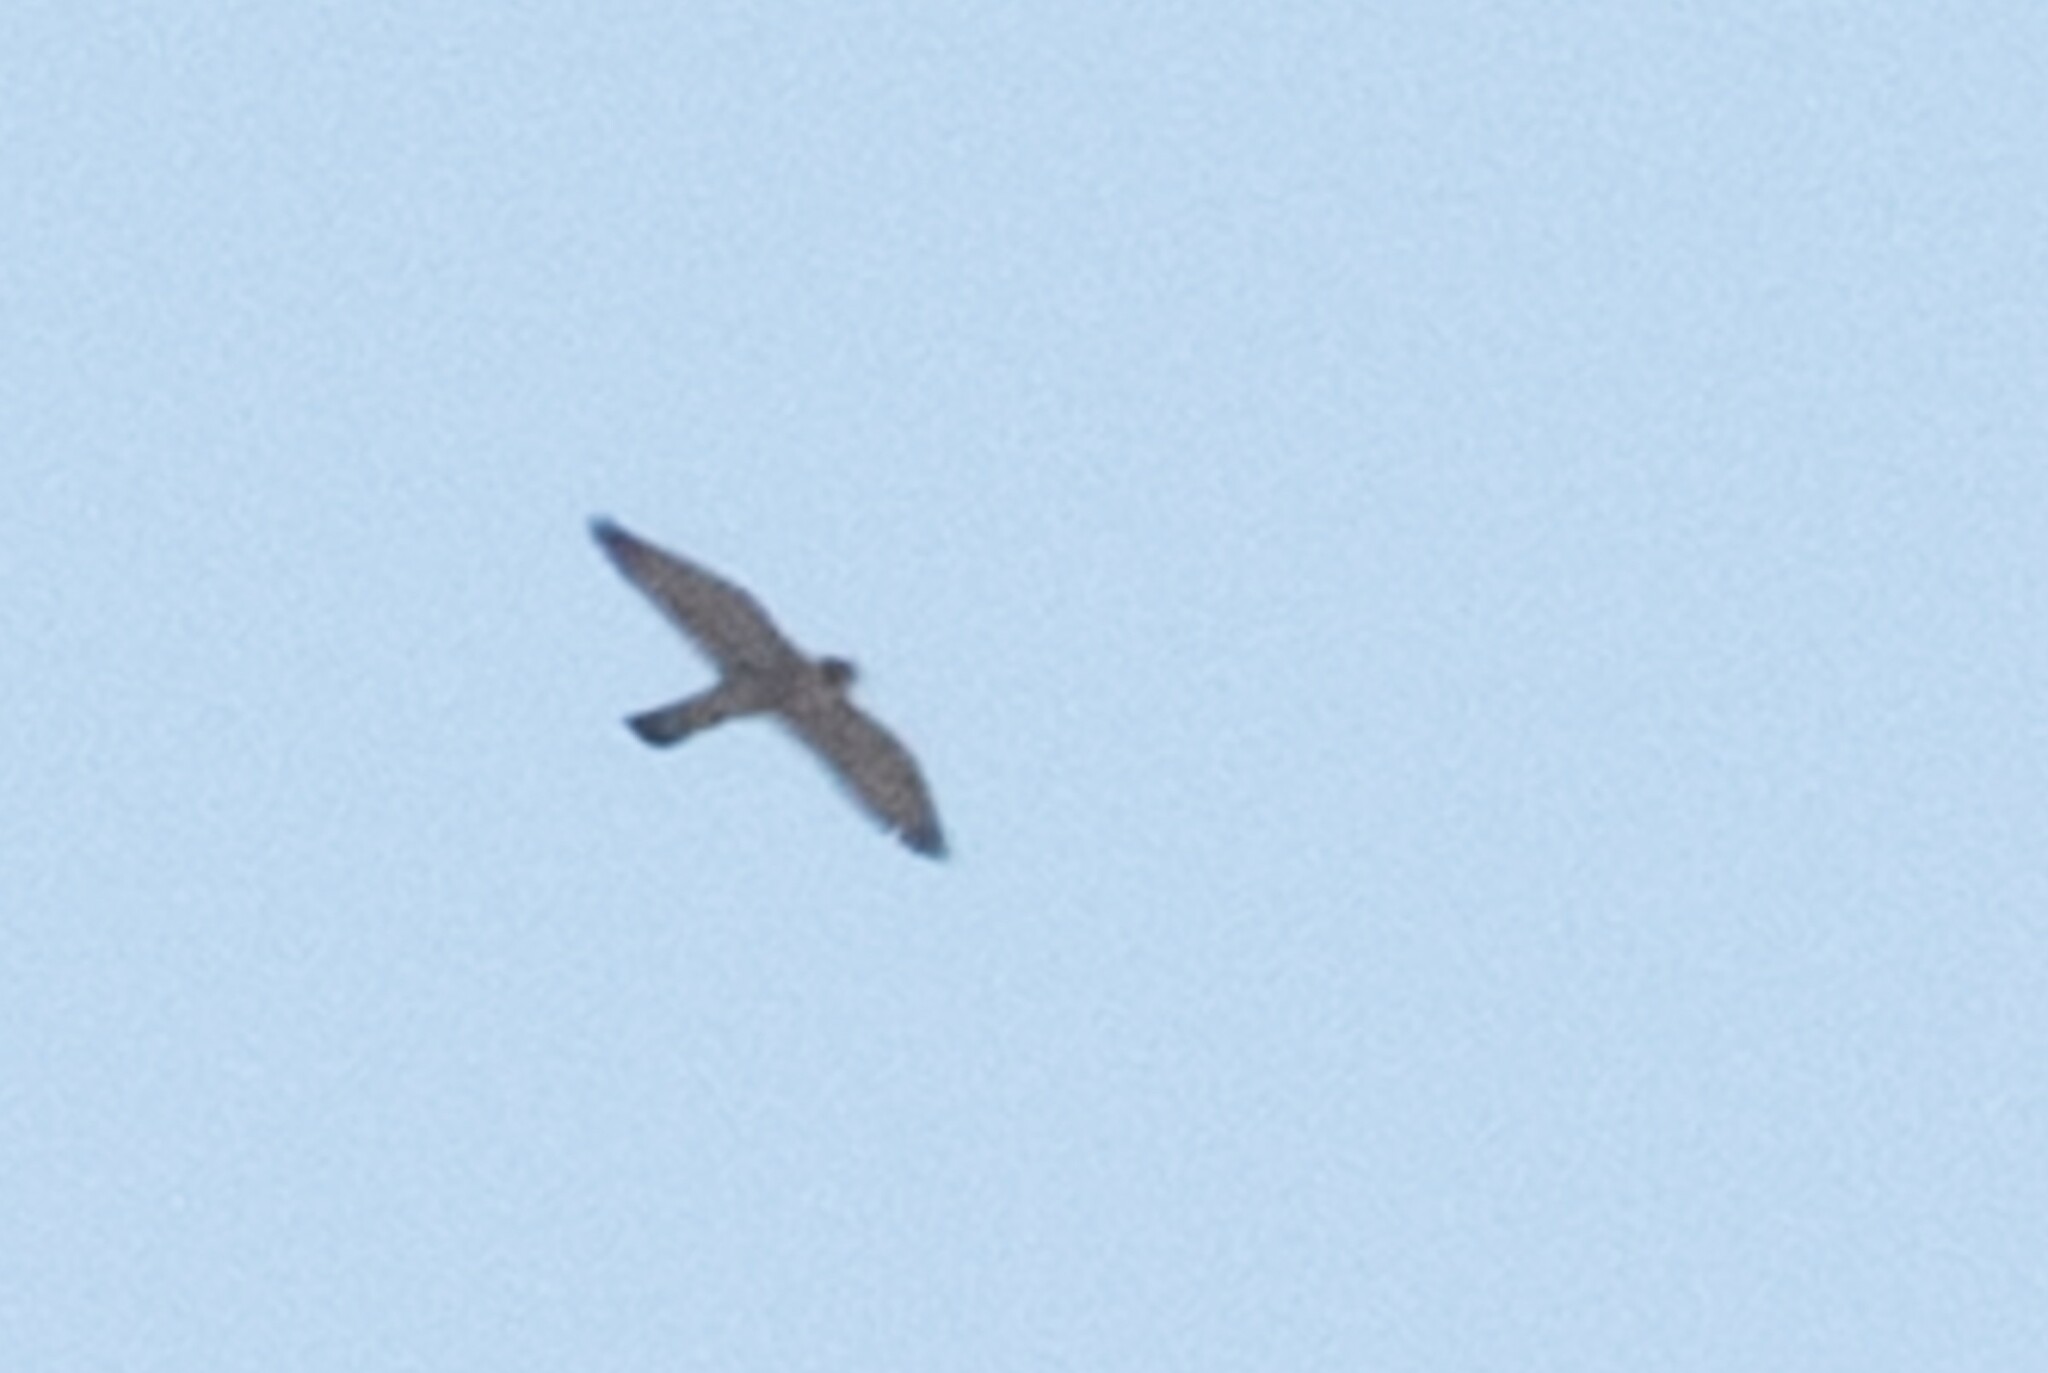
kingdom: Animalia
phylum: Chordata
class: Aves
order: Falconiformes
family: Falconidae
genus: Falco
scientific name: Falco peregrinus
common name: Peregrine falcon
